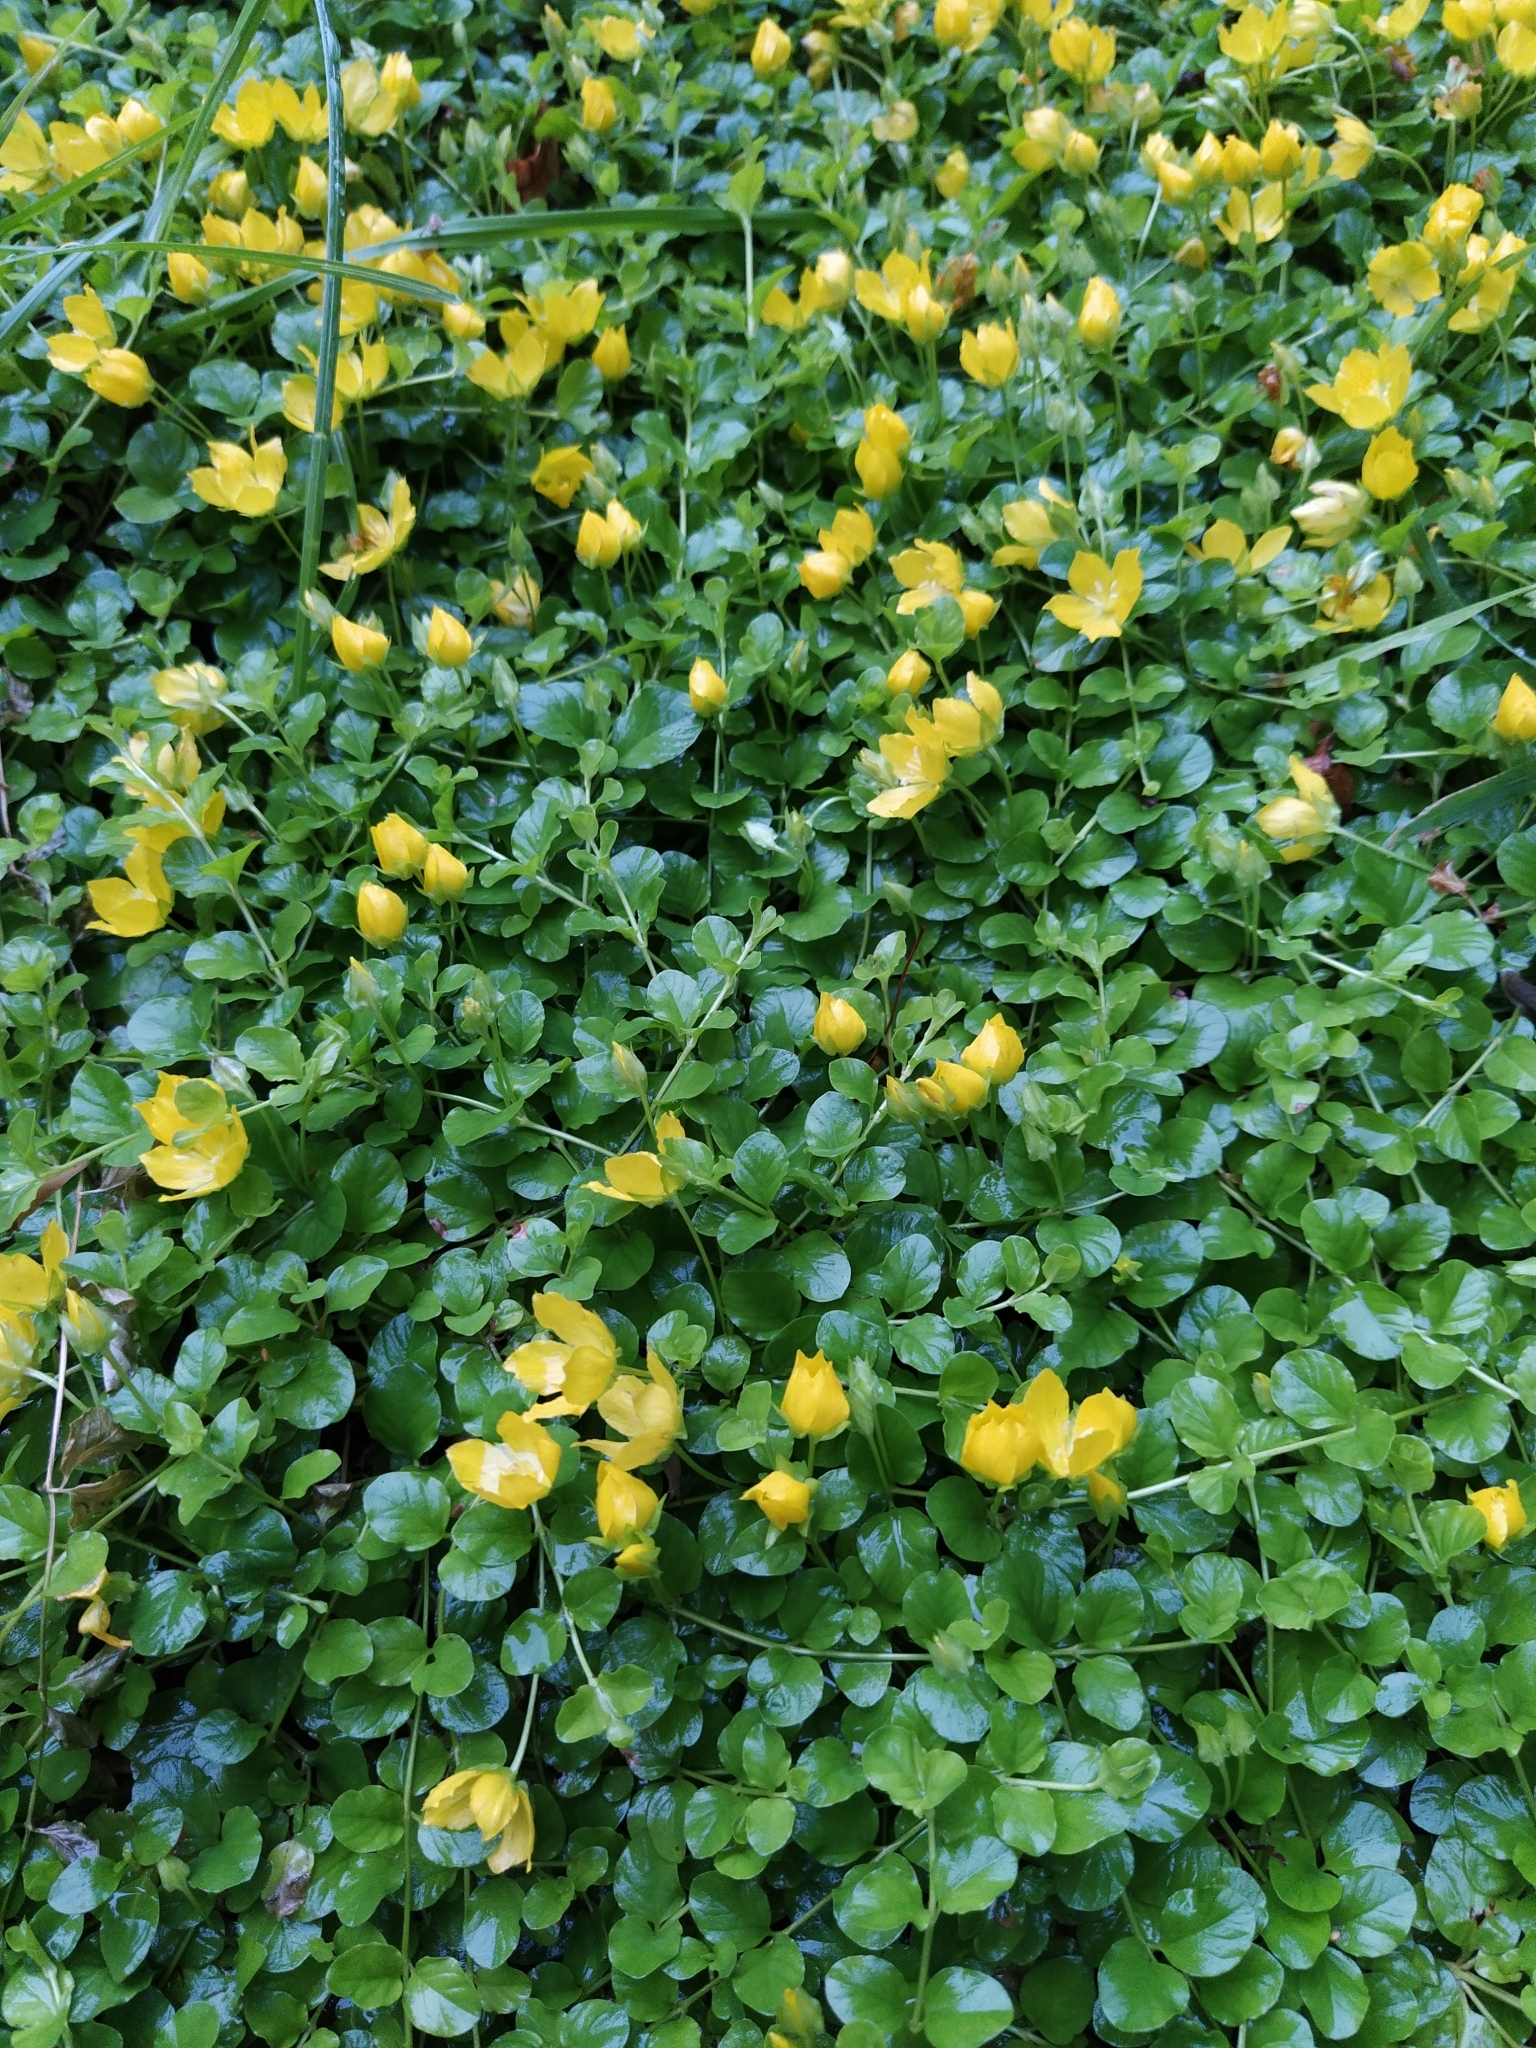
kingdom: Plantae
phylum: Tracheophyta
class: Magnoliopsida
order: Ericales
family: Primulaceae
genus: Lysimachia
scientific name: Lysimachia nummularia
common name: Moneywort
